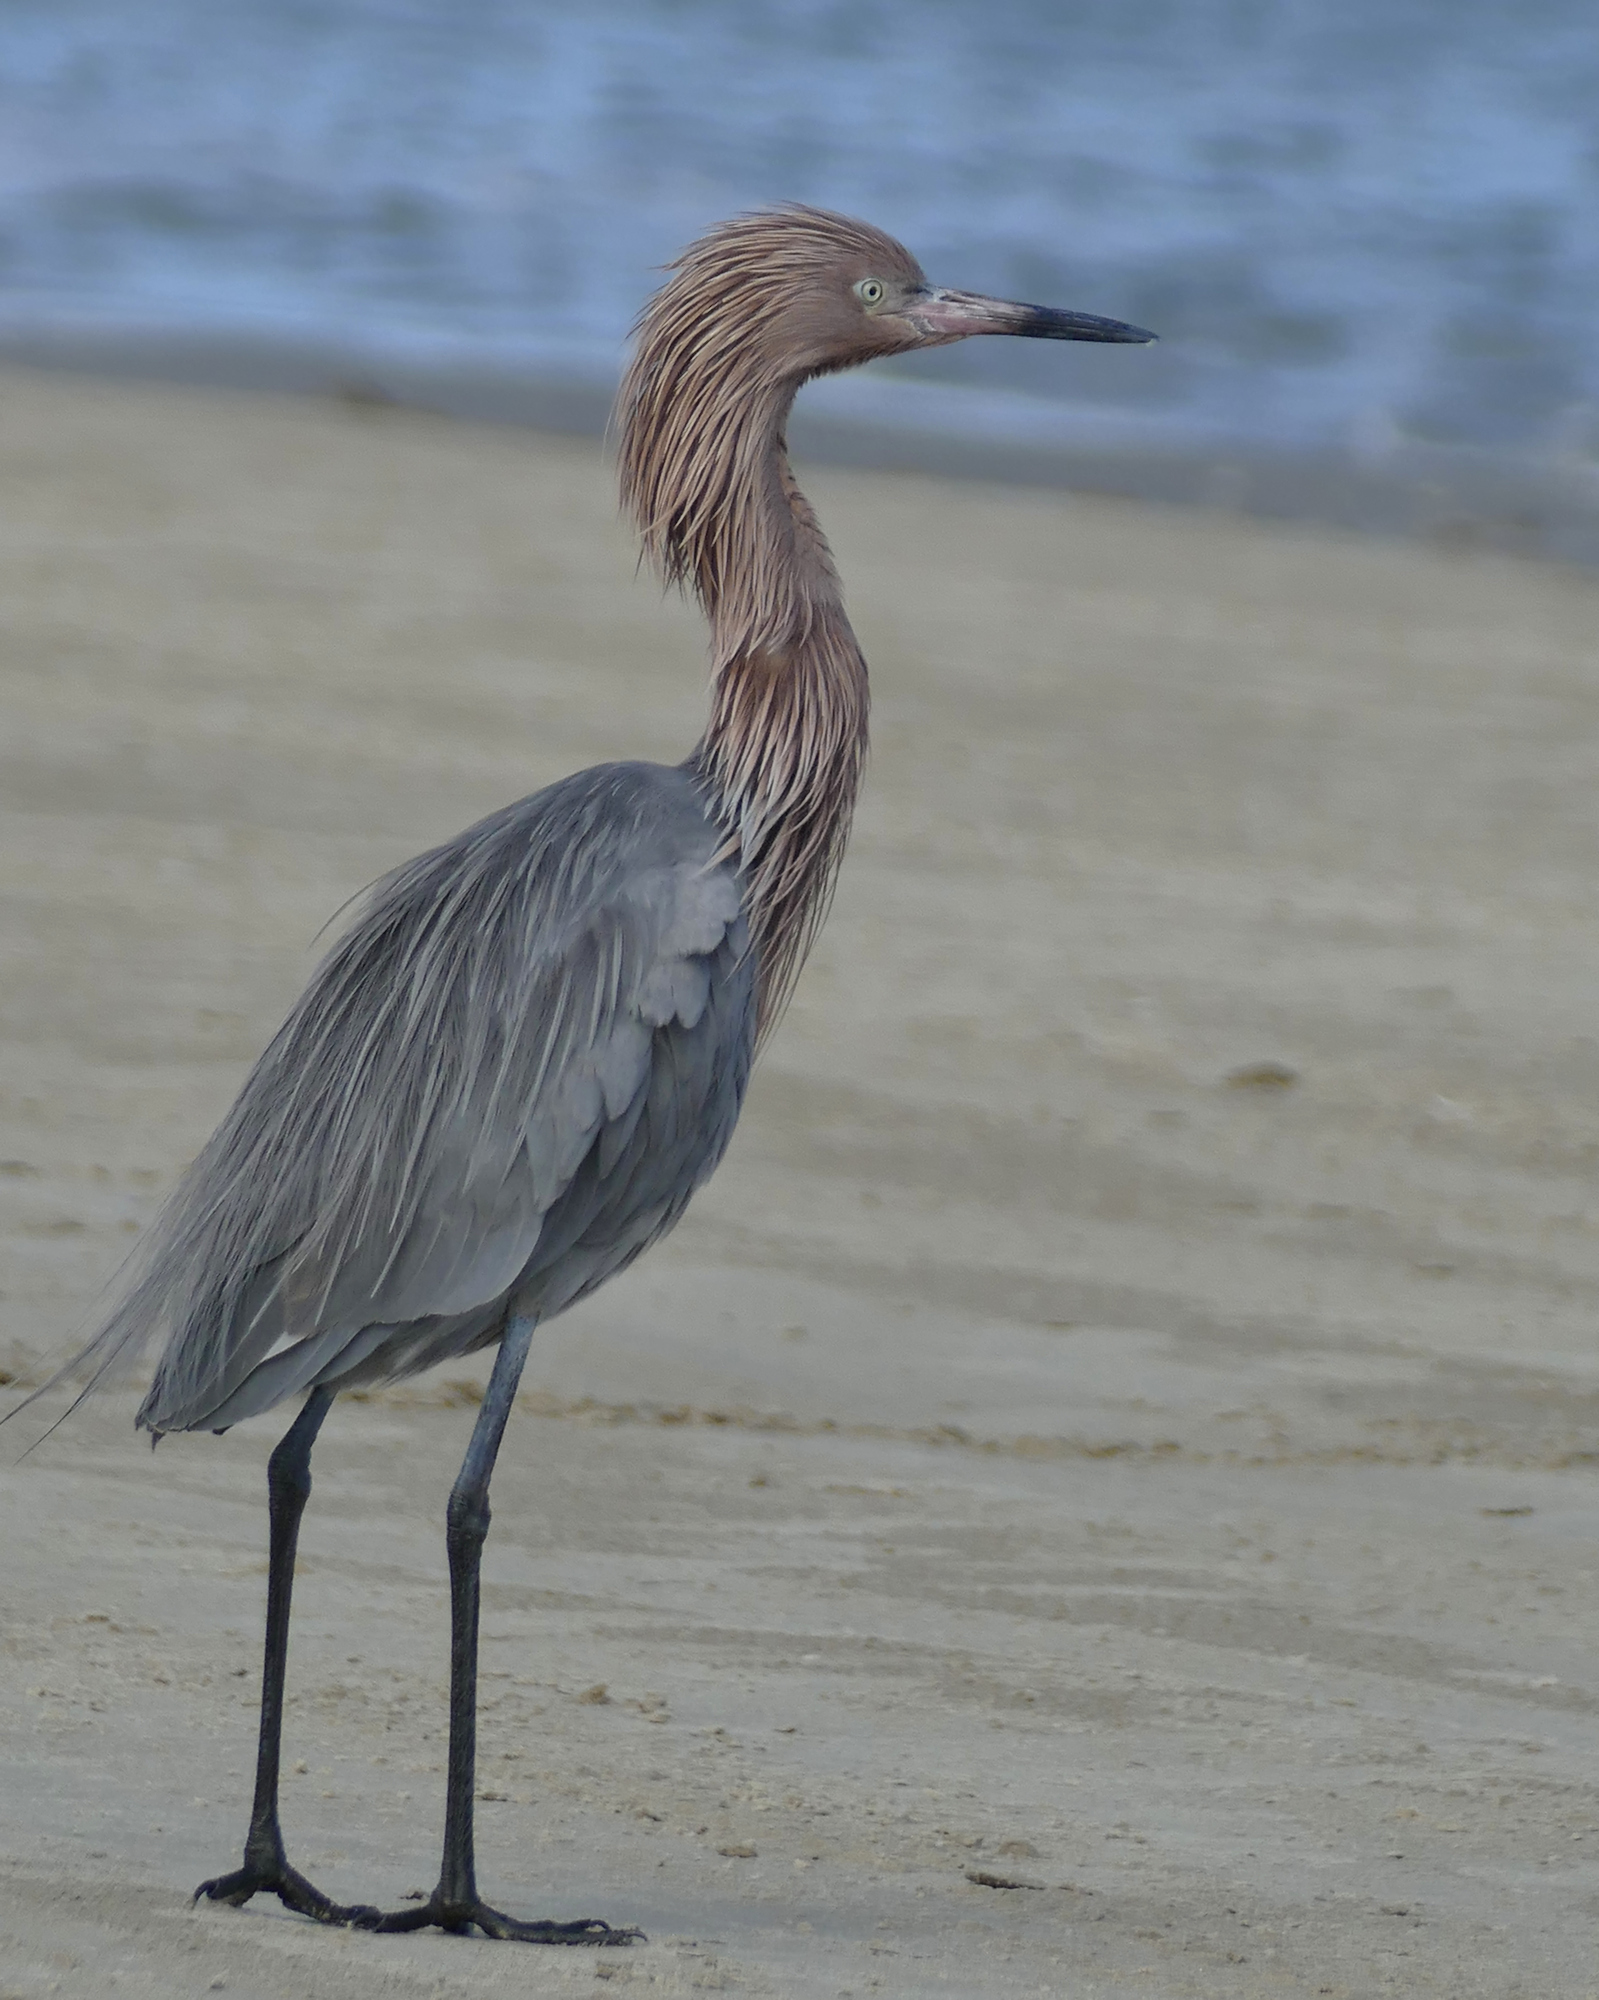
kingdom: Animalia
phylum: Chordata
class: Aves
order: Pelecaniformes
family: Ardeidae
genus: Egretta
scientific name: Egretta rufescens
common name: Reddish egret
